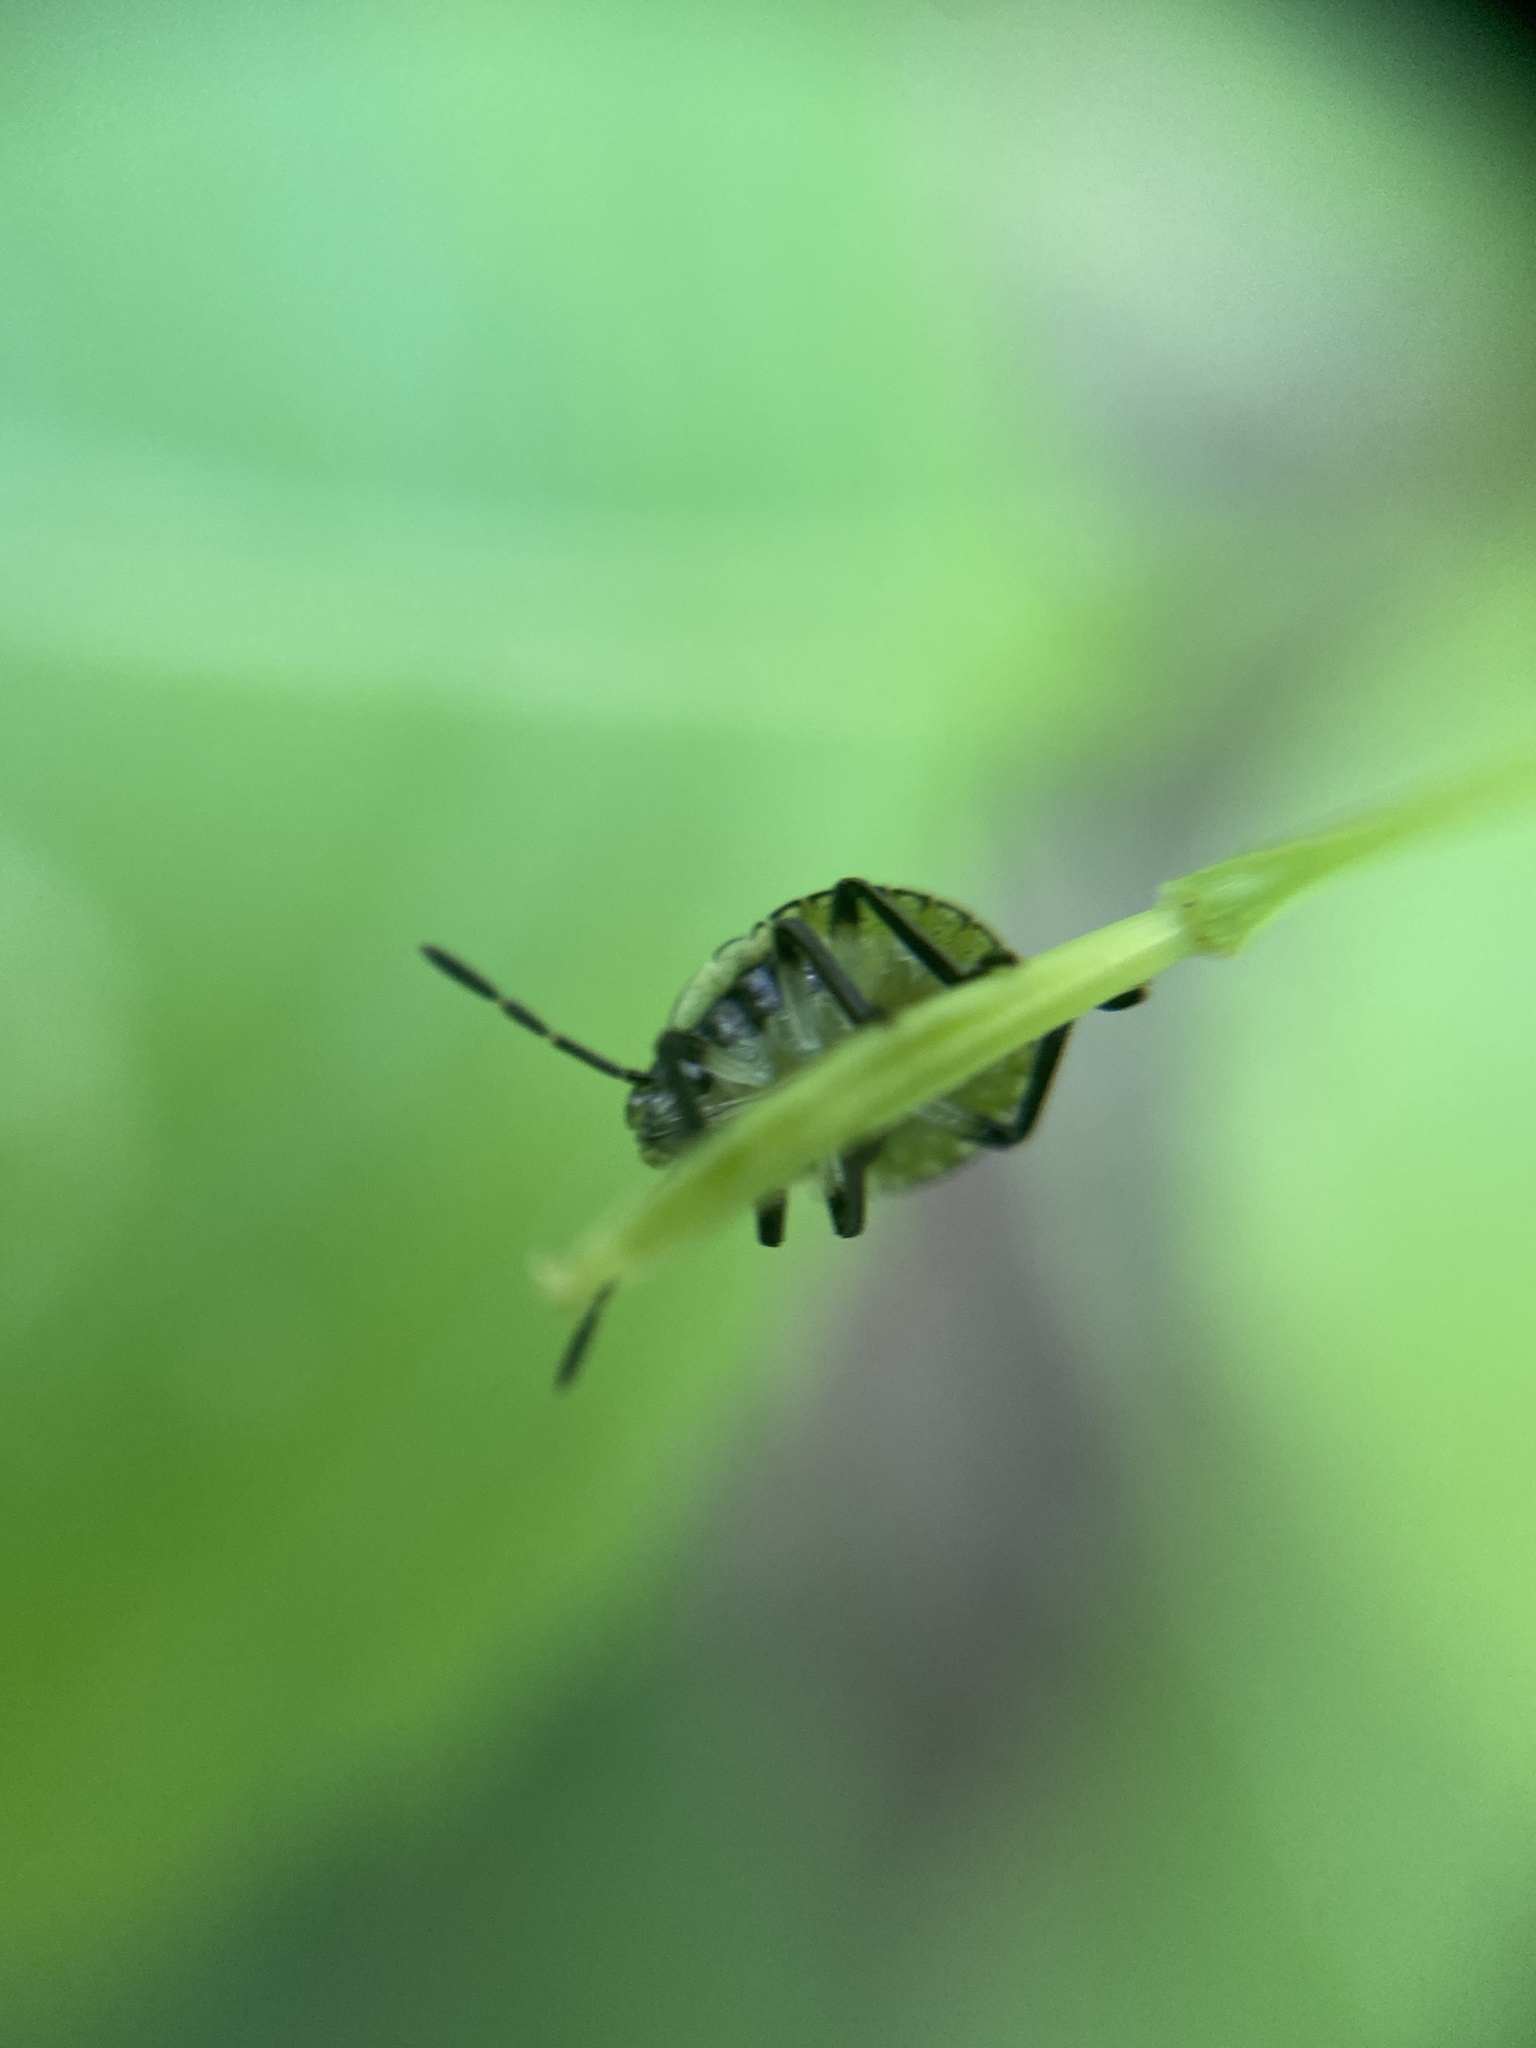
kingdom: Animalia
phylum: Arthropoda
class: Insecta
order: Hemiptera
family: Pentatomidae
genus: Palomena
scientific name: Palomena prasina
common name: Green shieldbug
